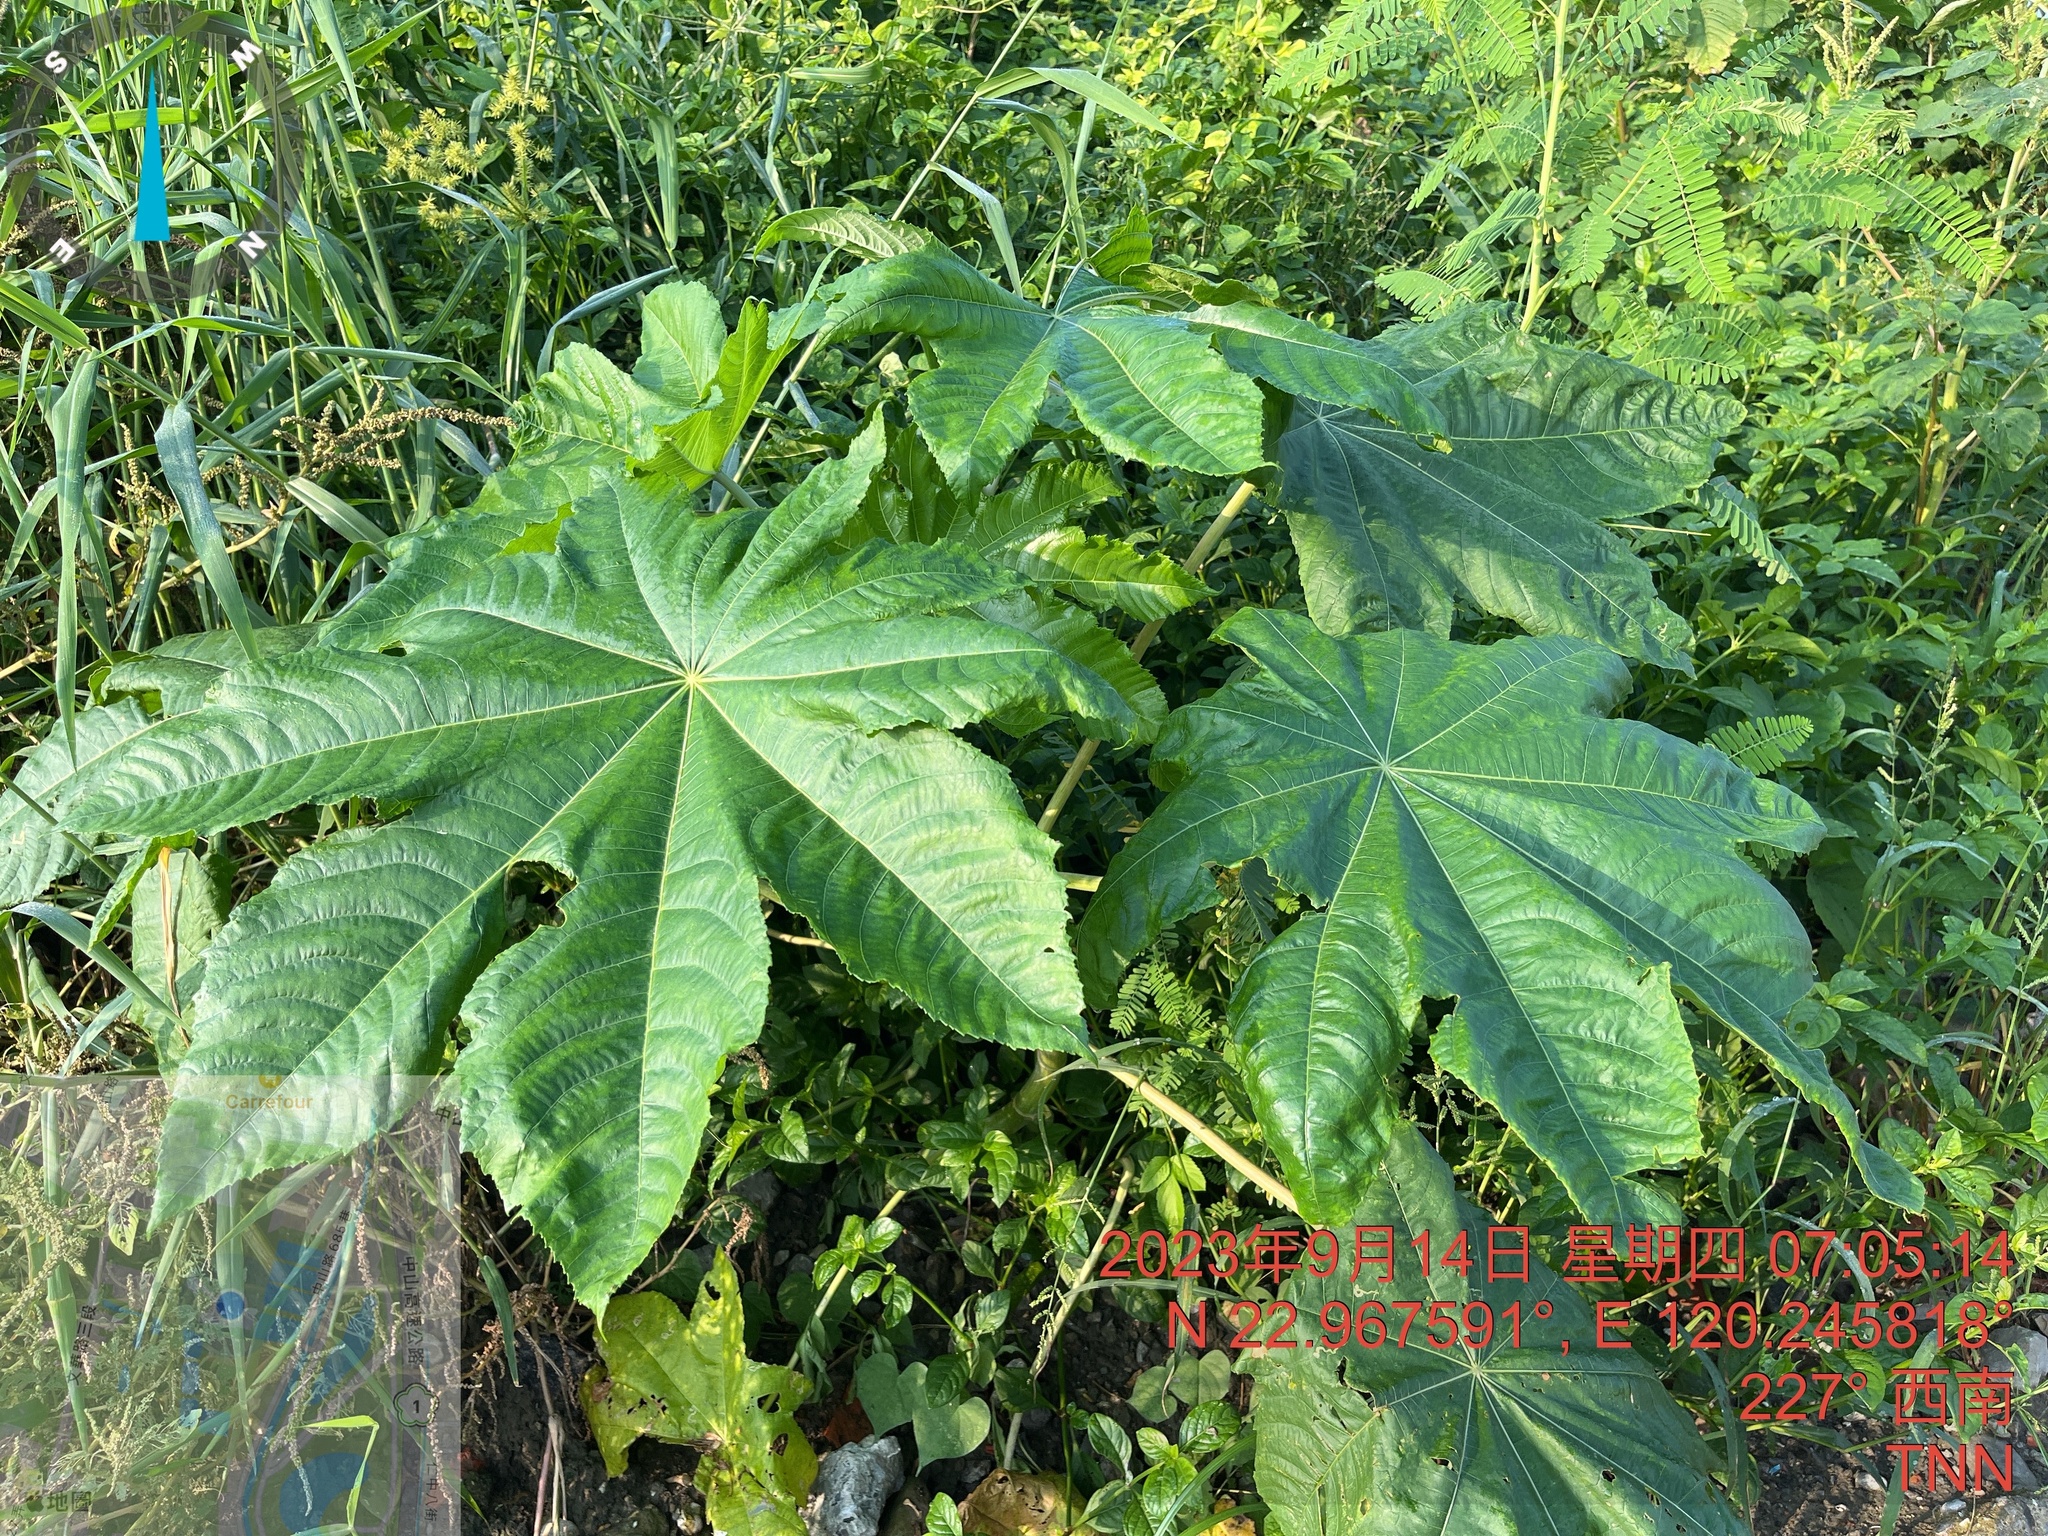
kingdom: Plantae
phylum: Tracheophyta
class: Magnoliopsida
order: Malpighiales
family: Euphorbiaceae
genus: Ricinus
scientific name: Ricinus communis
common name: Castor-oil-plant
